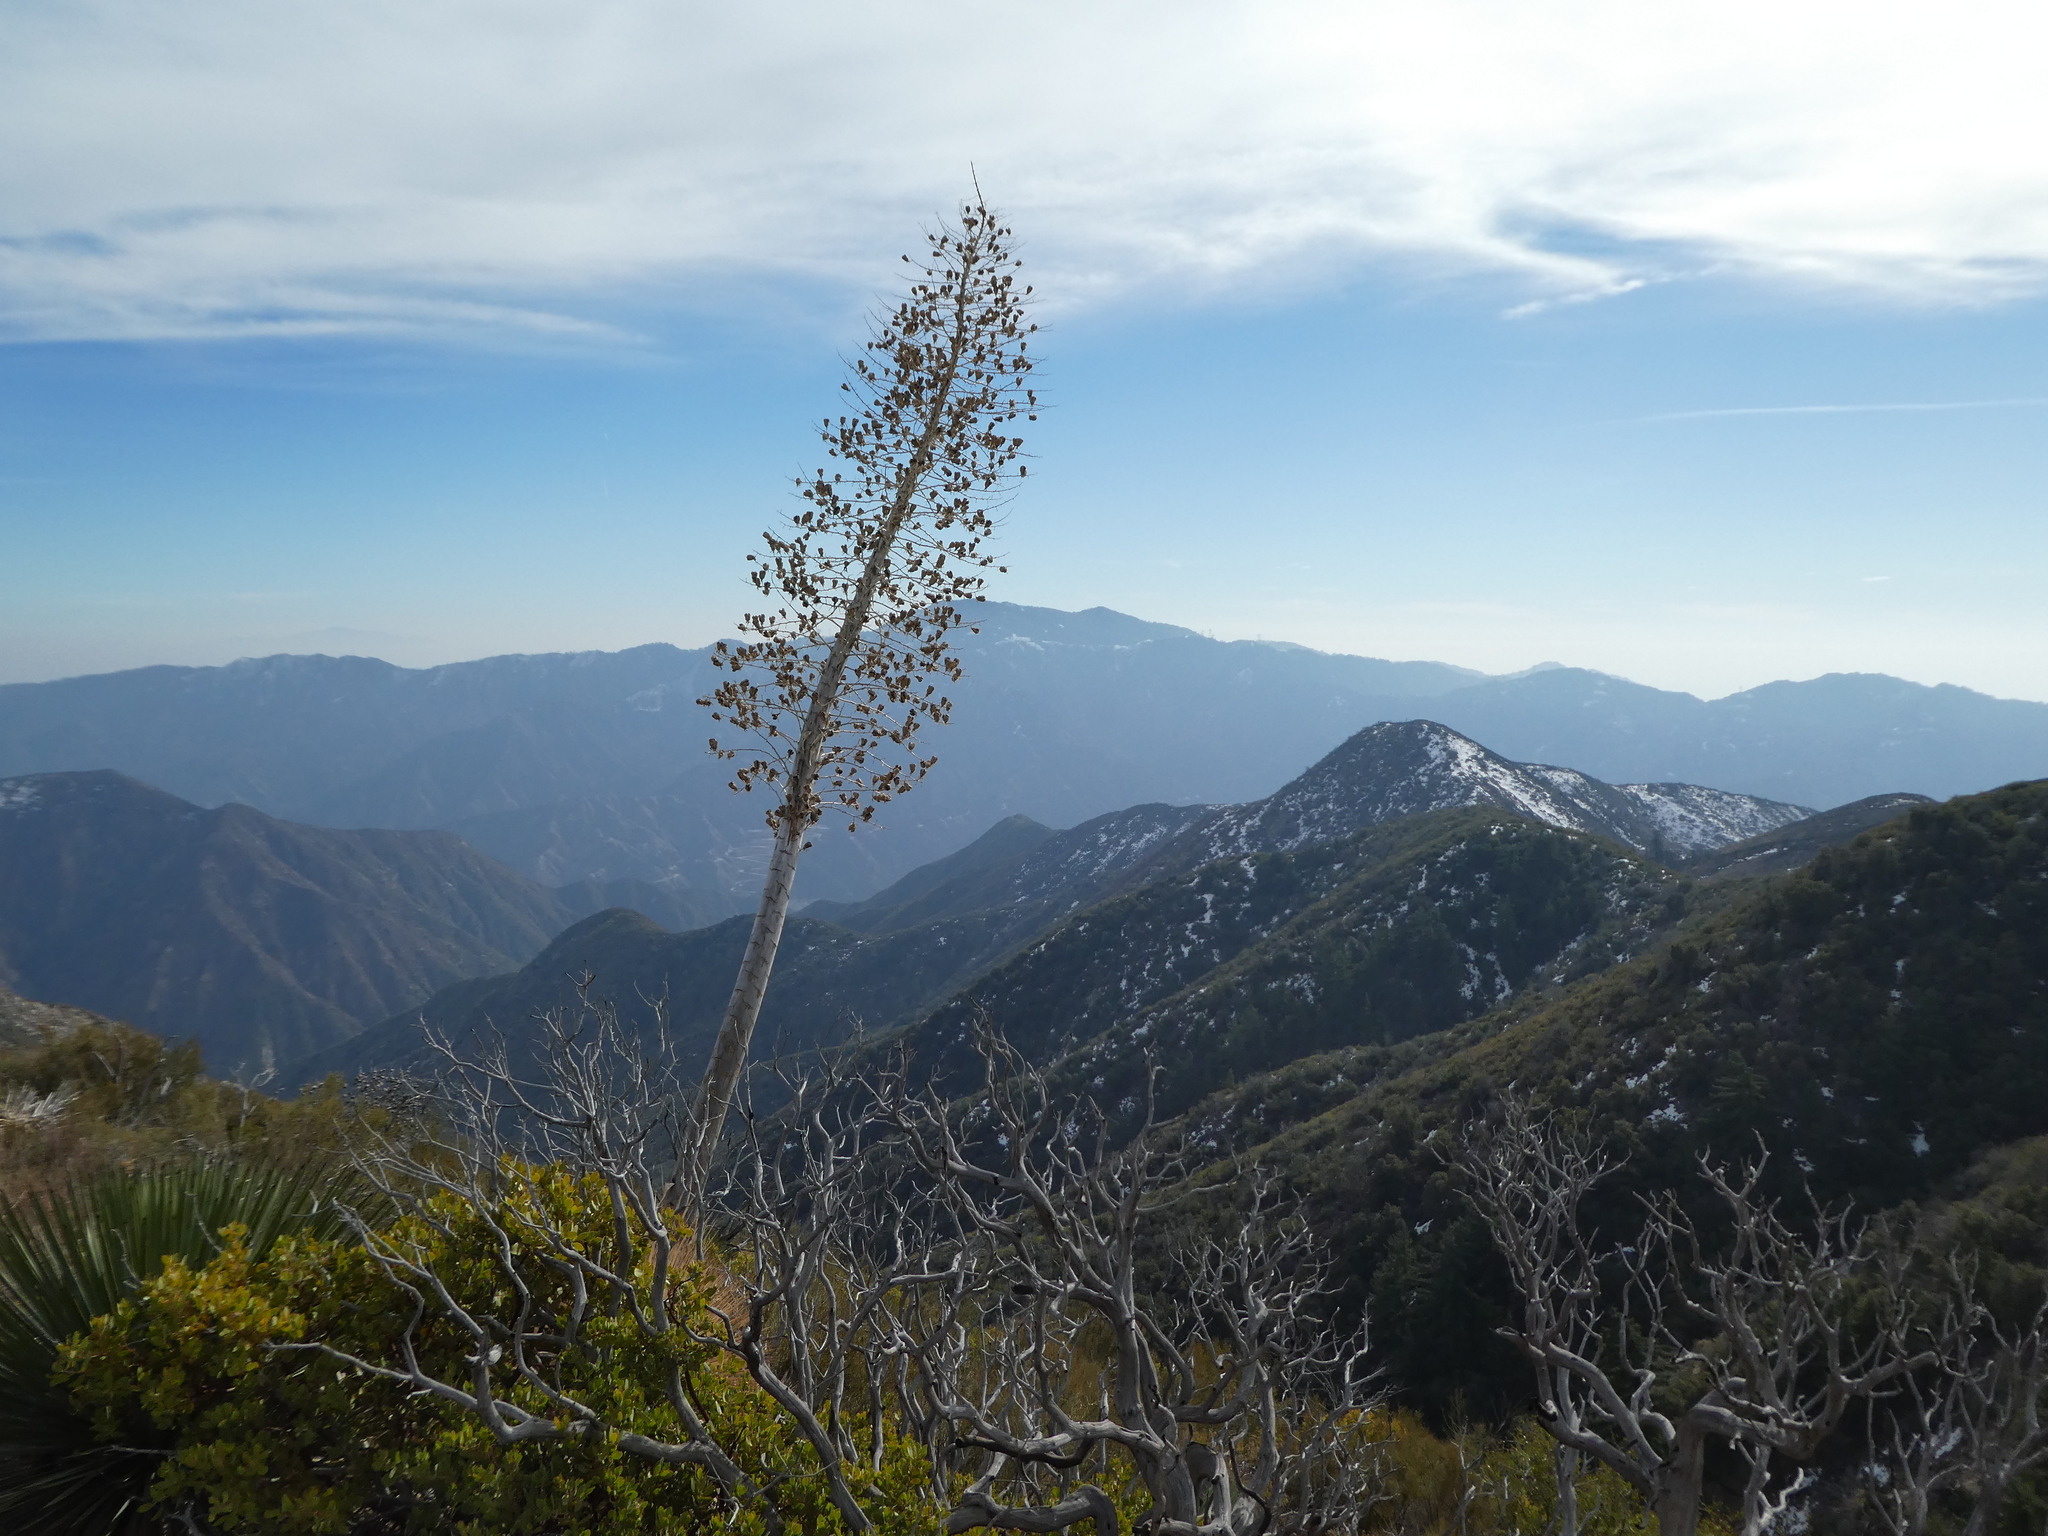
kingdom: Plantae
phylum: Tracheophyta
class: Liliopsida
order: Asparagales
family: Asparagaceae
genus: Hesperoyucca
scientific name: Hesperoyucca whipplei
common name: Our lord's-candle
